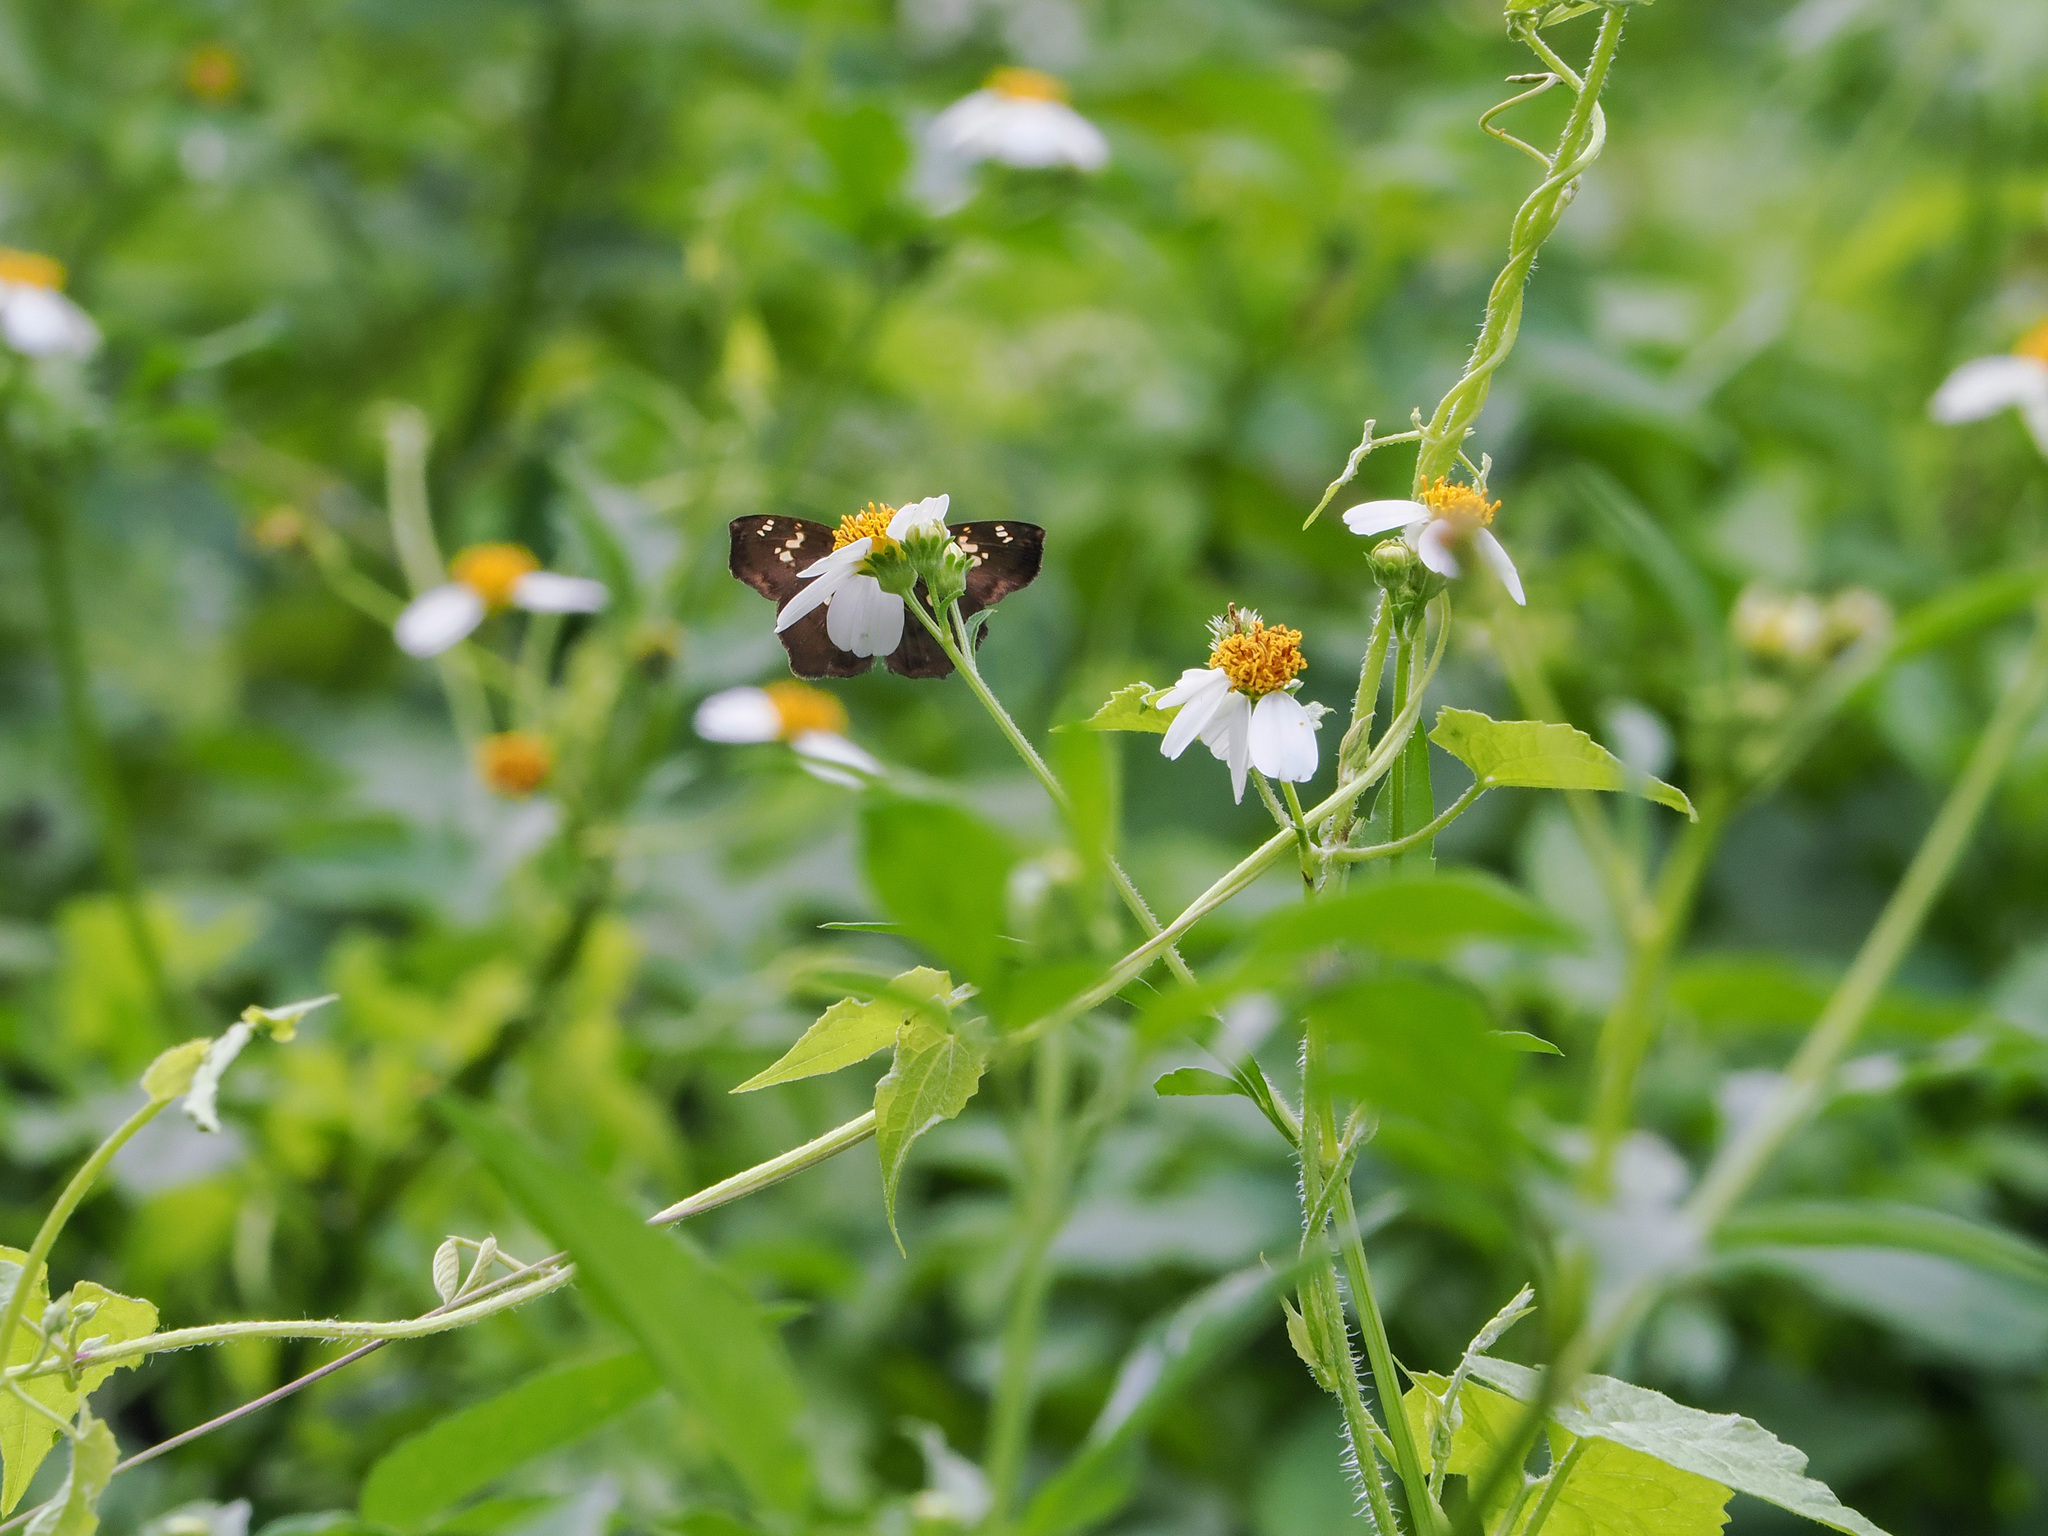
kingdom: Animalia
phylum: Arthropoda
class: Insecta
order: Lepidoptera
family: Hesperiidae
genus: Tapena
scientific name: Tapena thwaitesi
